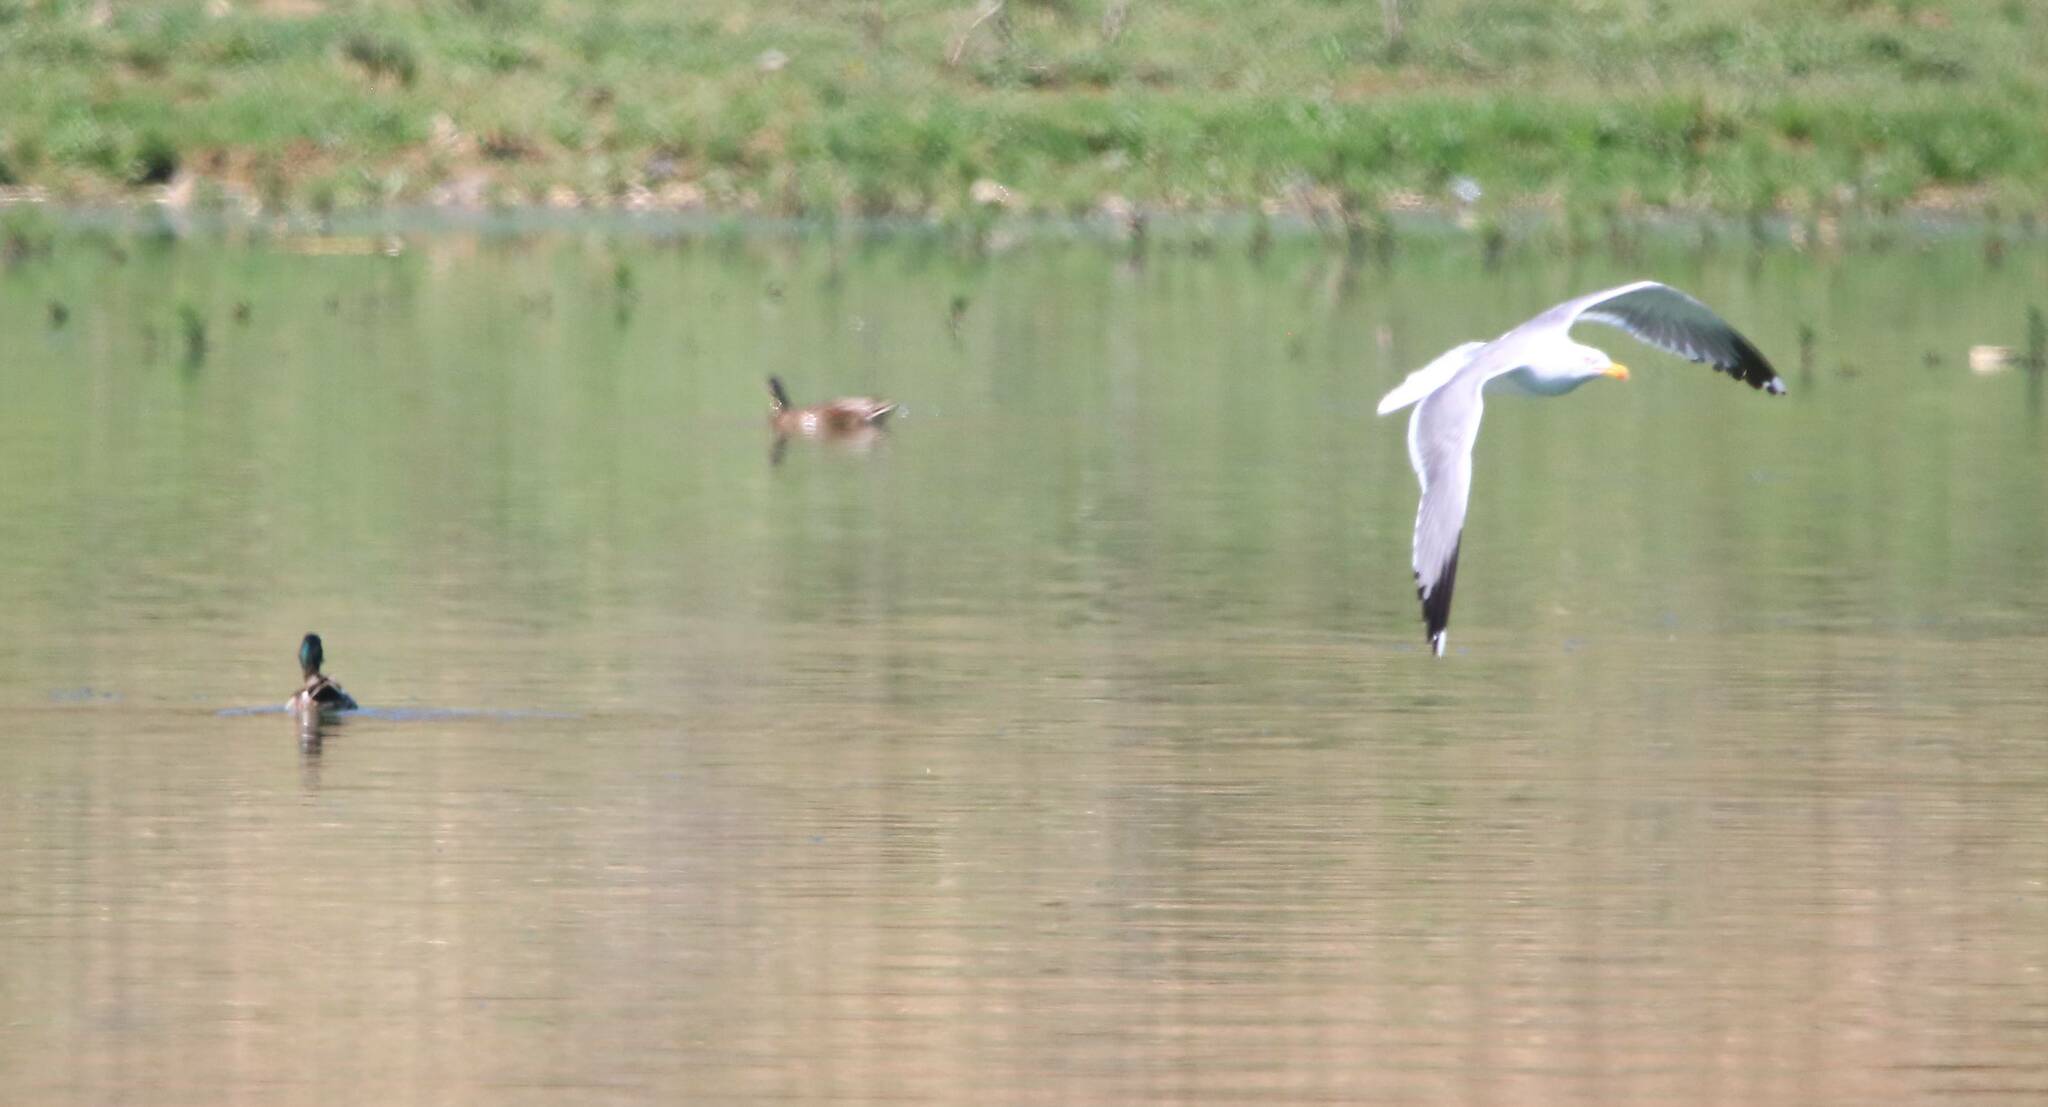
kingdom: Animalia
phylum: Chordata
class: Aves
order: Charadriiformes
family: Laridae
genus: Larus
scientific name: Larus michahellis
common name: Yellow-legged gull
